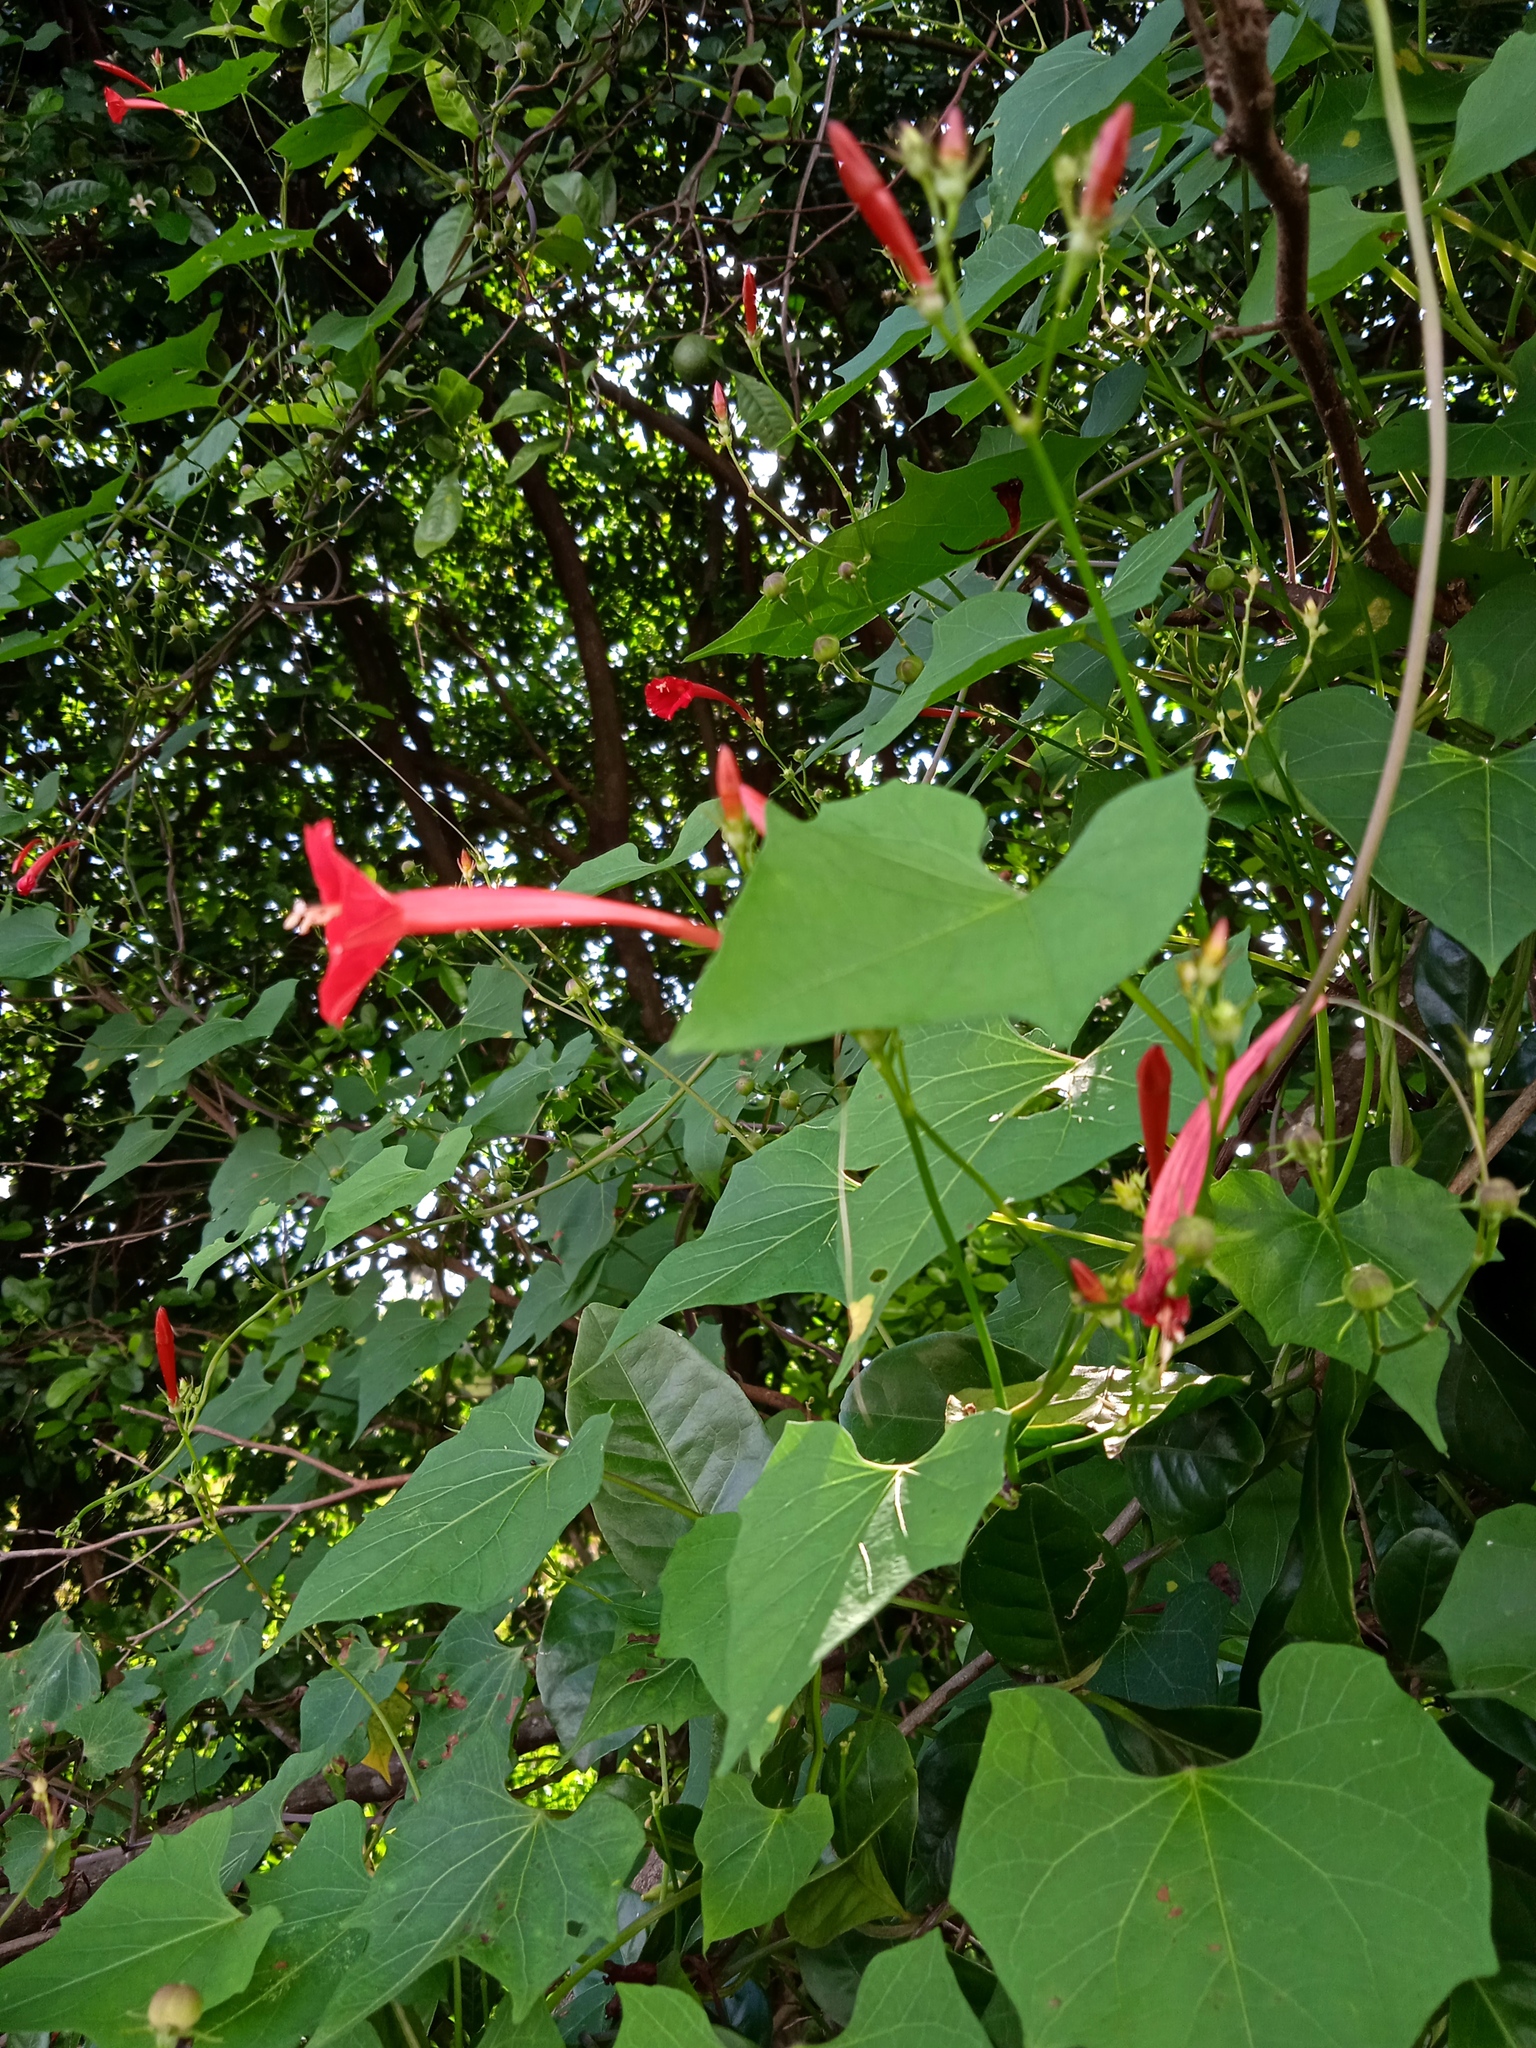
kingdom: Plantae
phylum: Tracheophyta
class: Magnoliopsida
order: Solanales
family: Convolvulaceae
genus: Ipomoea
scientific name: Ipomoea hederifolia
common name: Ivy-leaf morning-glory
